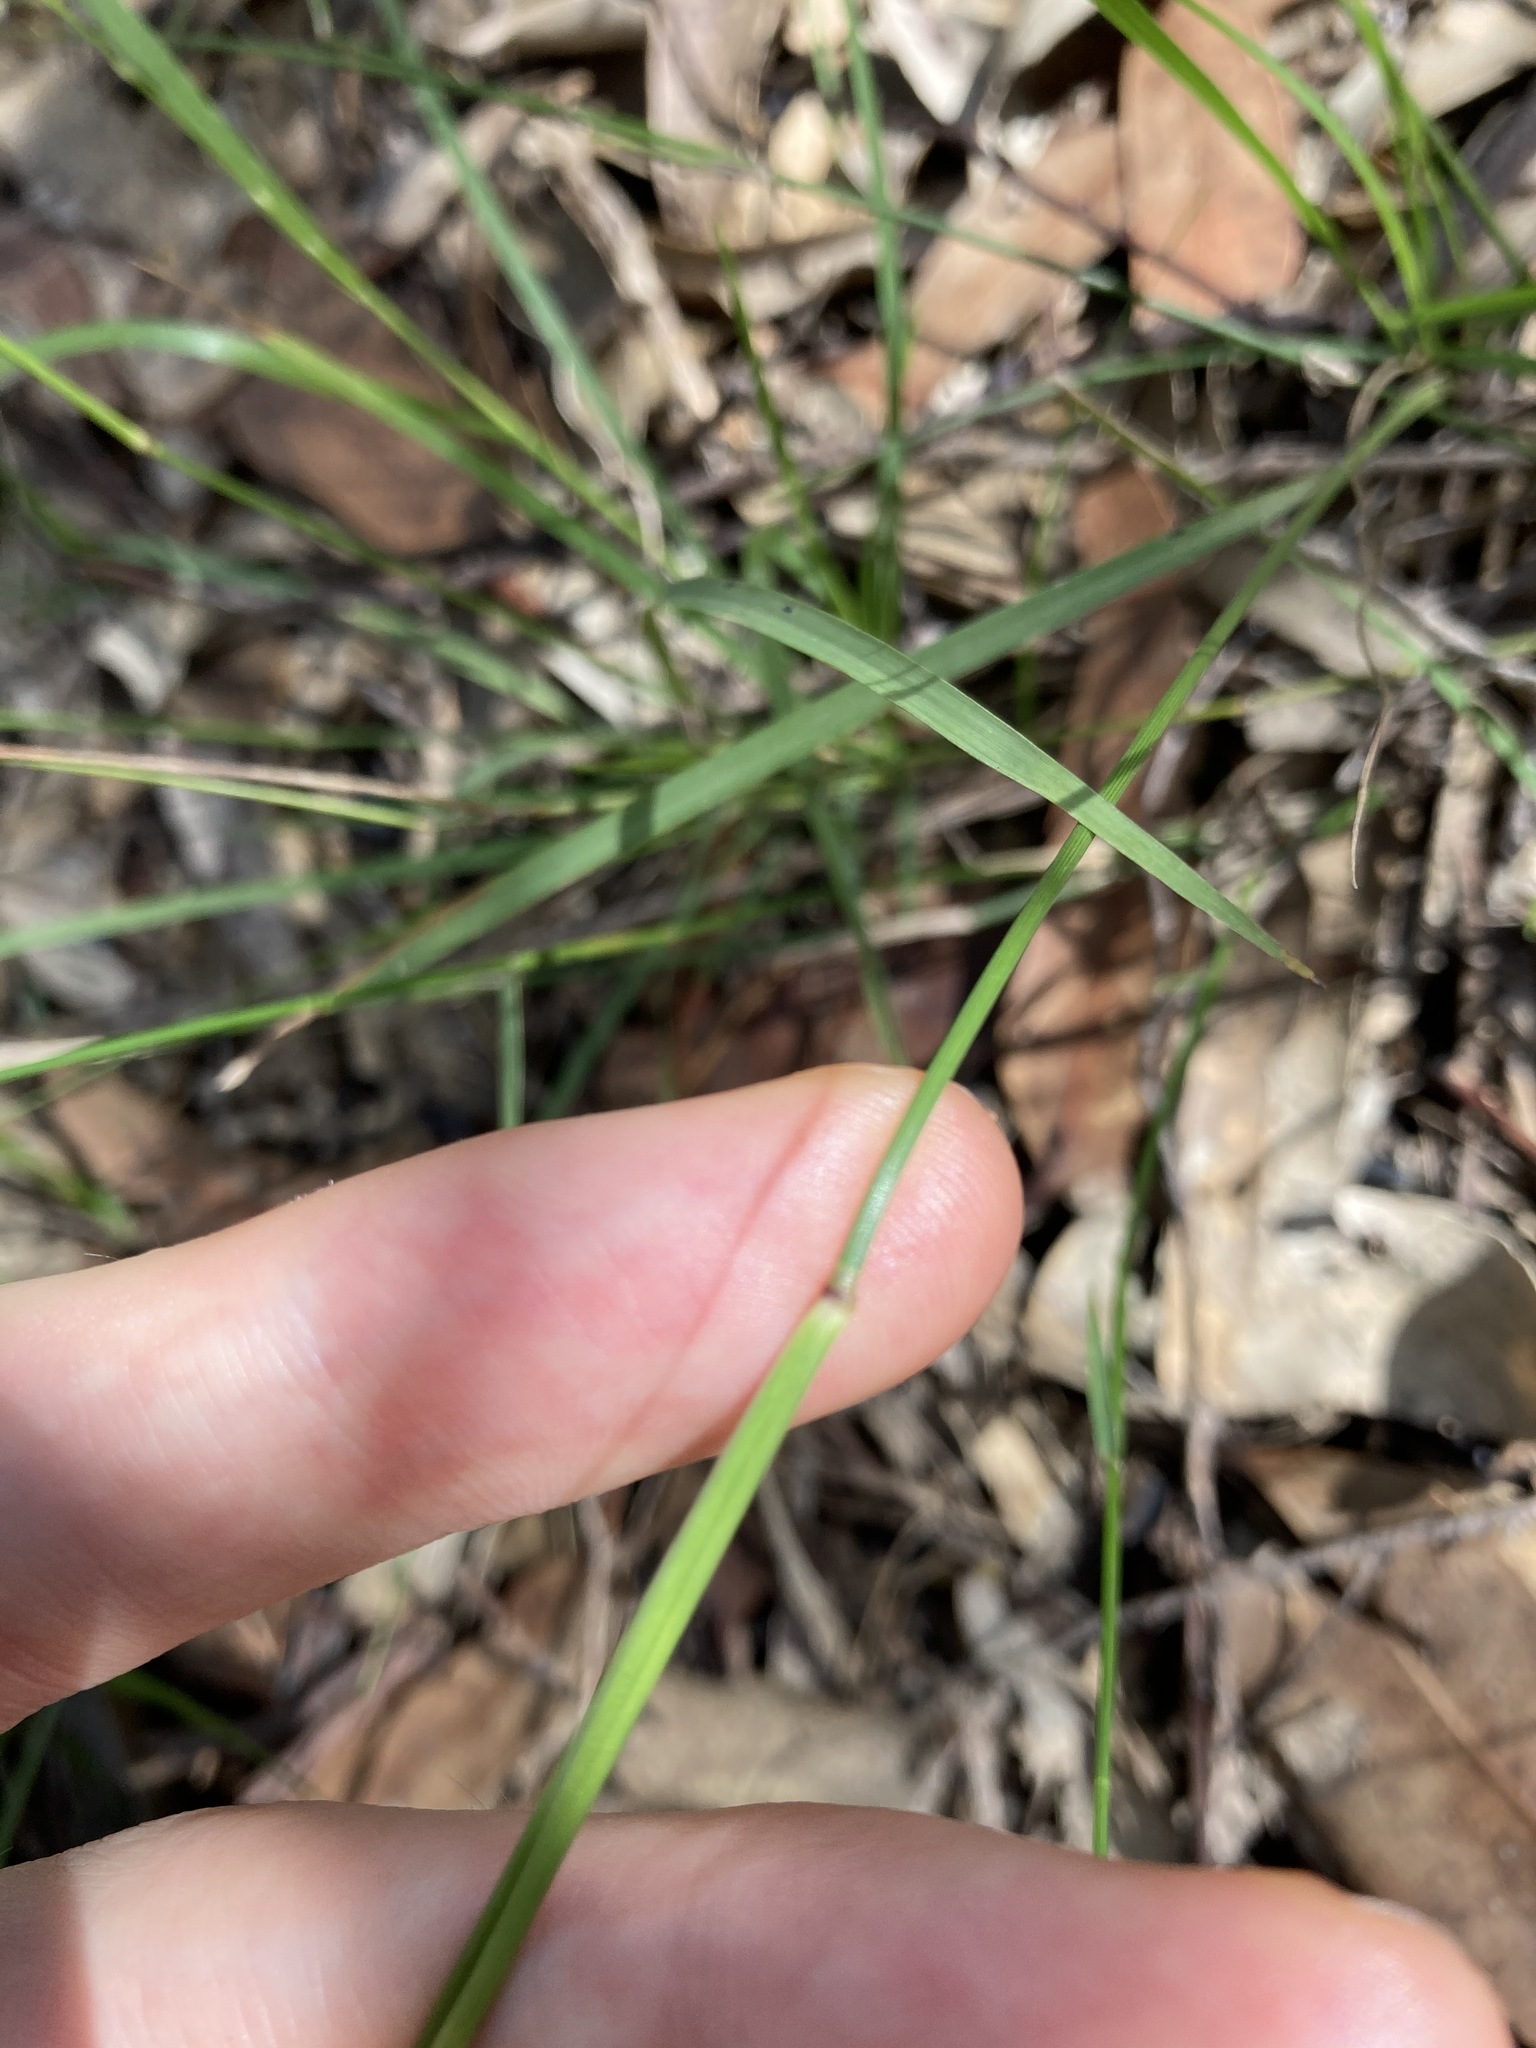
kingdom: Plantae
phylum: Tracheophyta
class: Liliopsida
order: Poales
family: Poaceae
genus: Panicum
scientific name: Panicum simile
